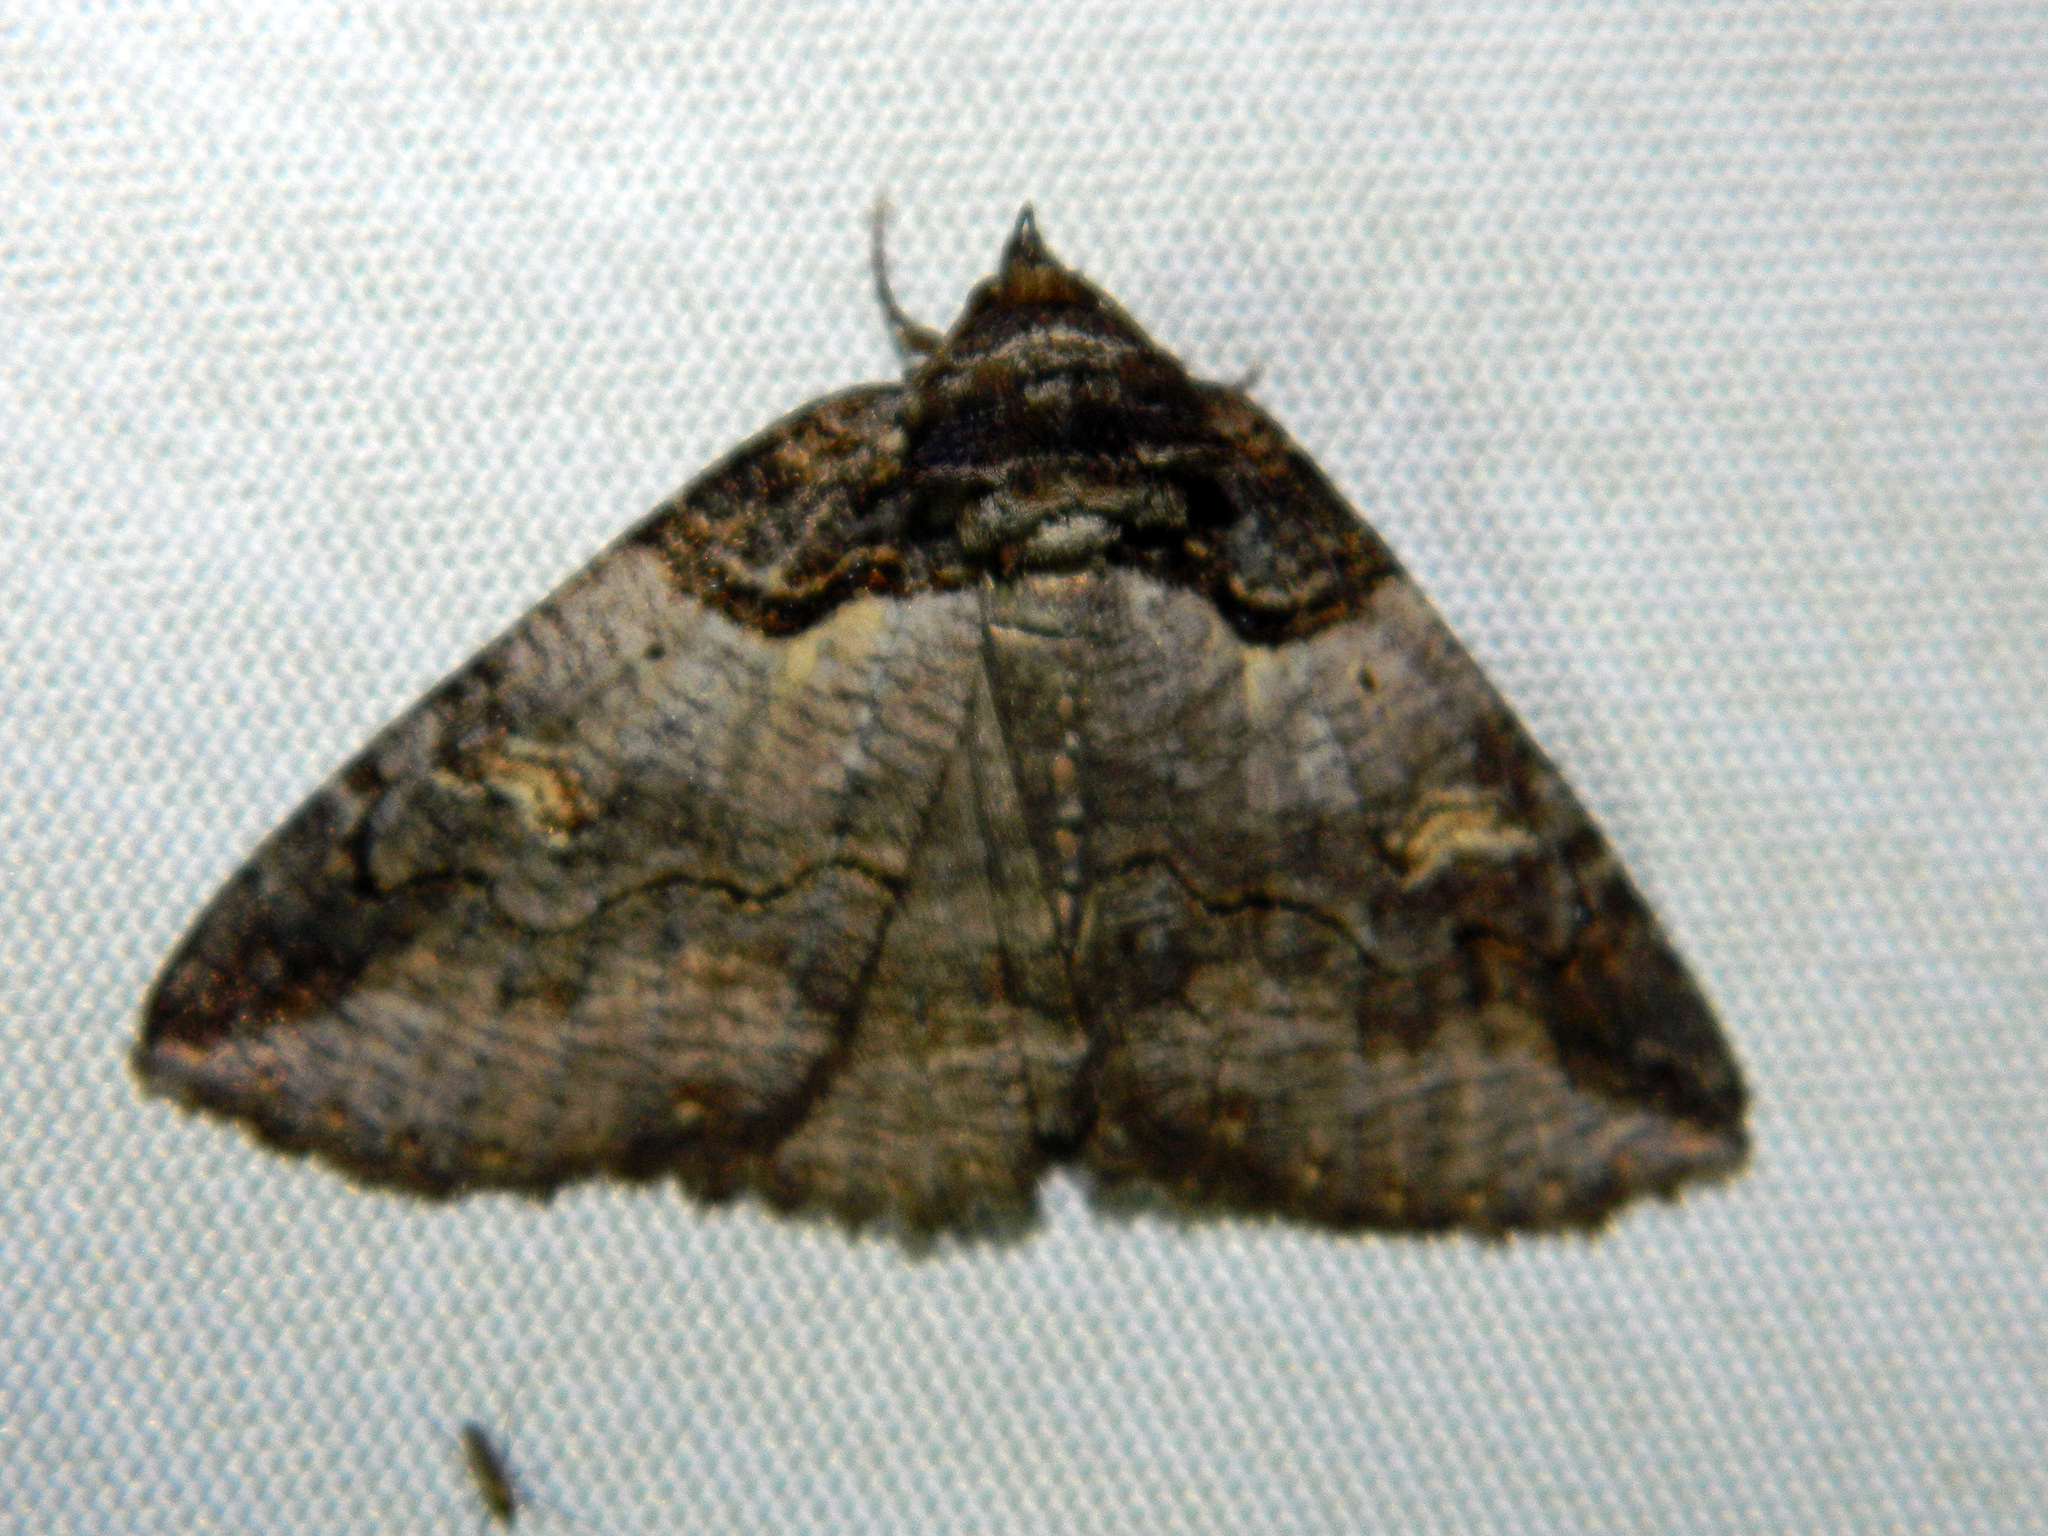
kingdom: Animalia
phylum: Arthropoda
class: Insecta
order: Lepidoptera
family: Erebidae
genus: Zale
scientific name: Zale intenta
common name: Intent zale moth
